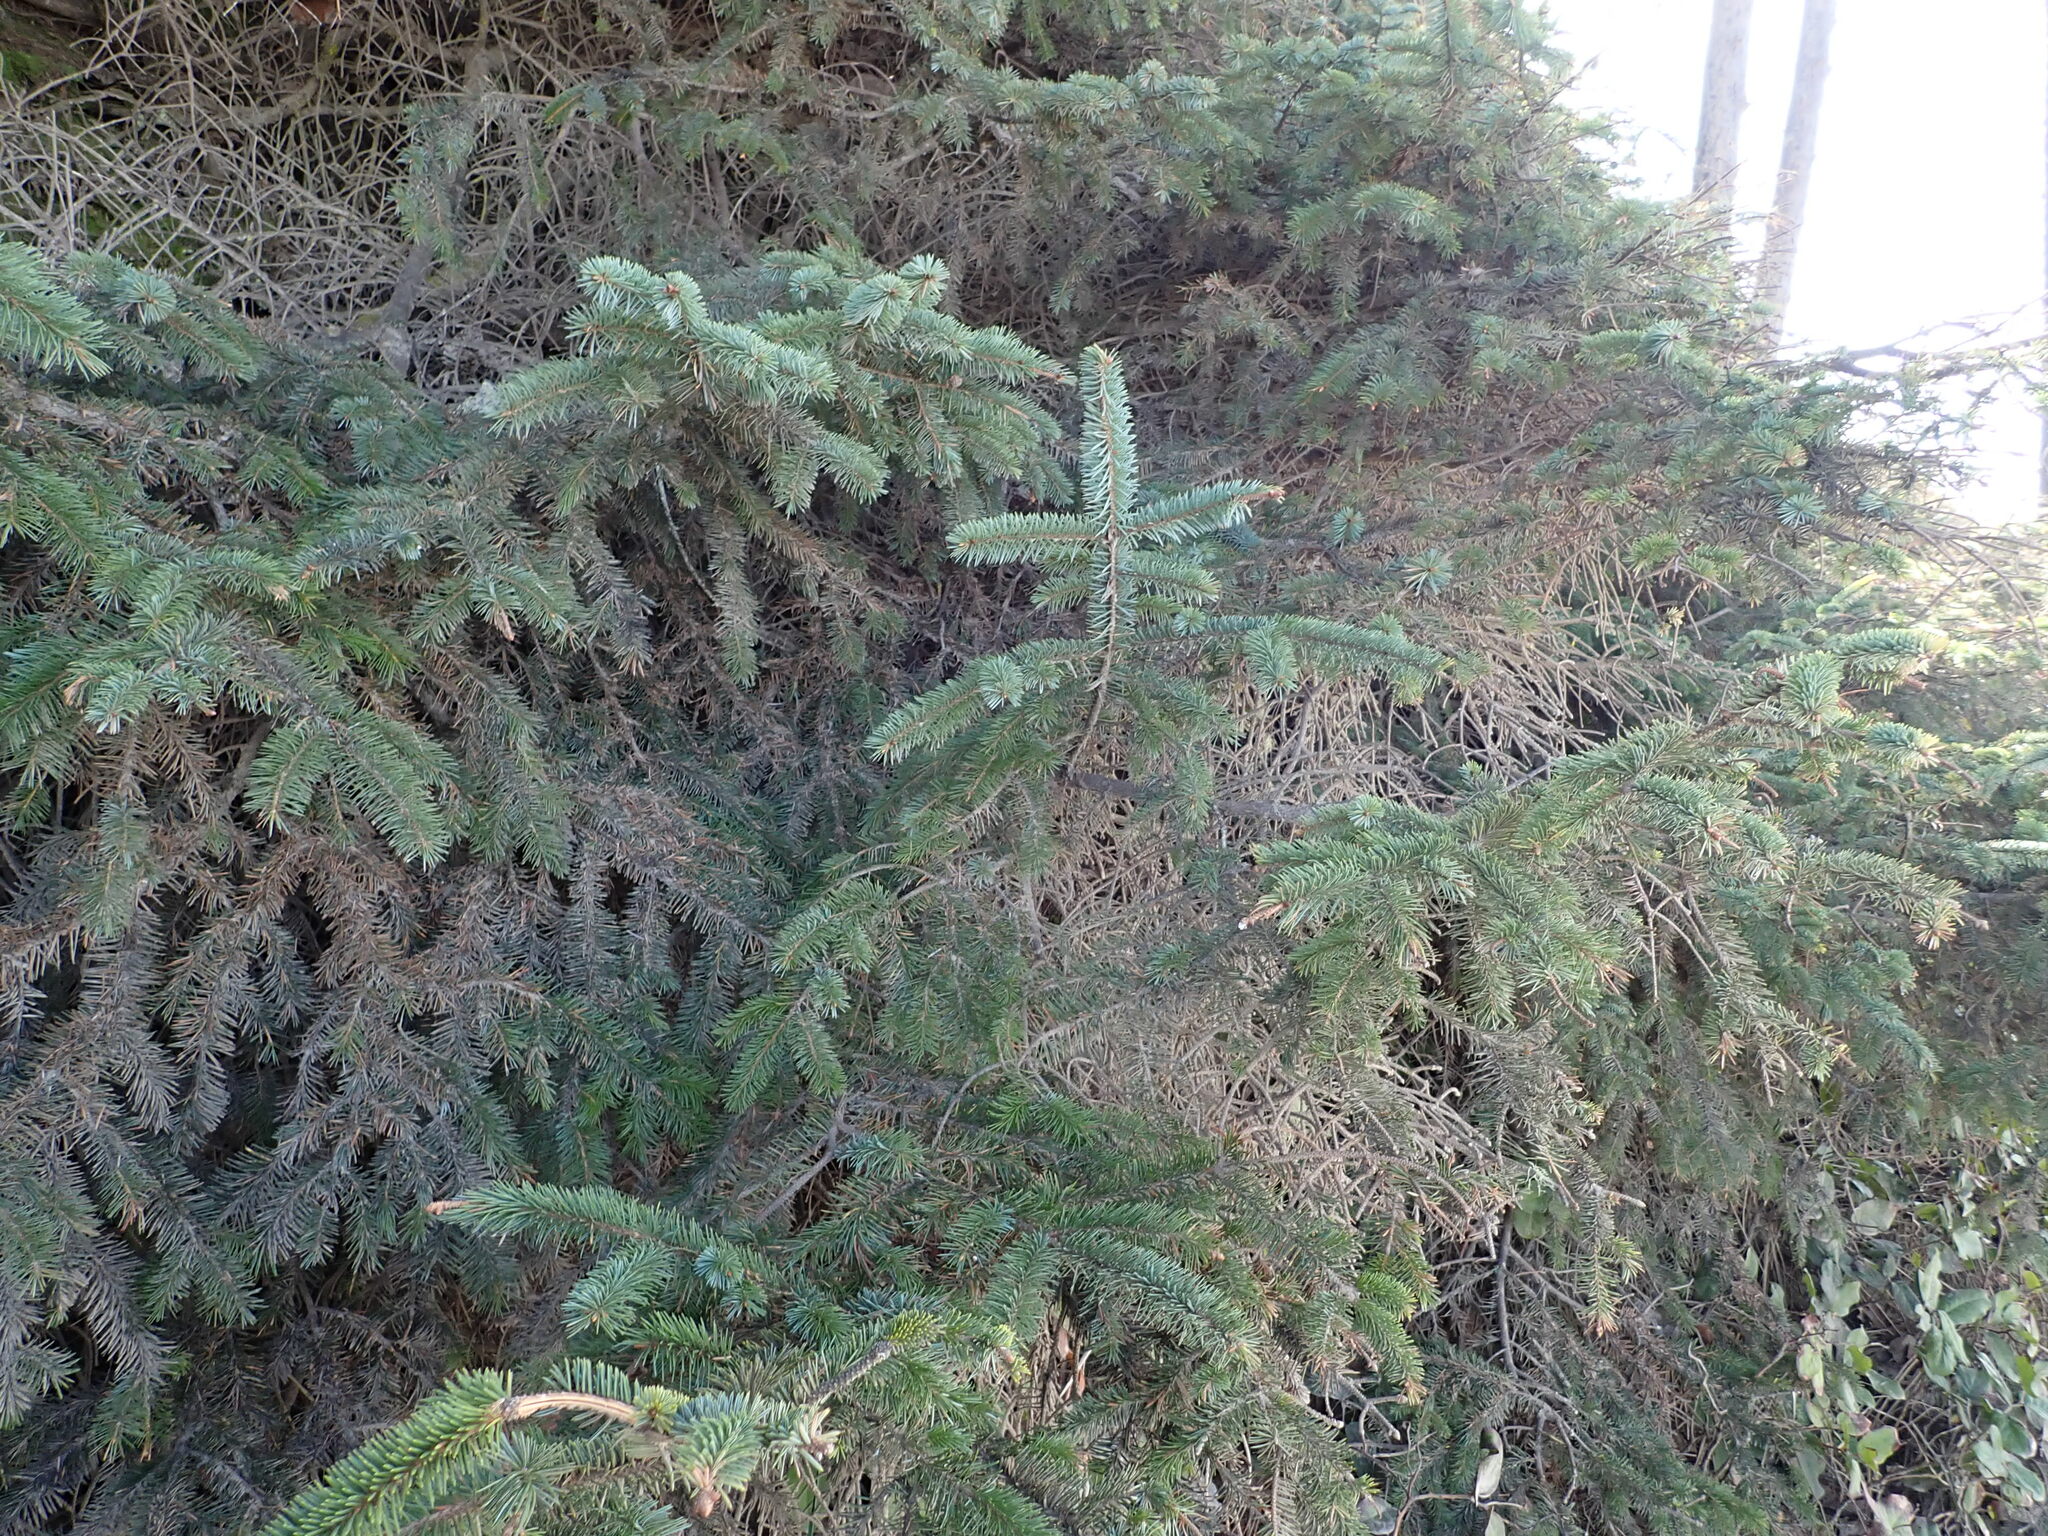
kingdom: Plantae
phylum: Tracheophyta
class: Pinopsida
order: Pinales
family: Pinaceae
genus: Picea
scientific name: Picea sitchensis
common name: Sitka spruce
